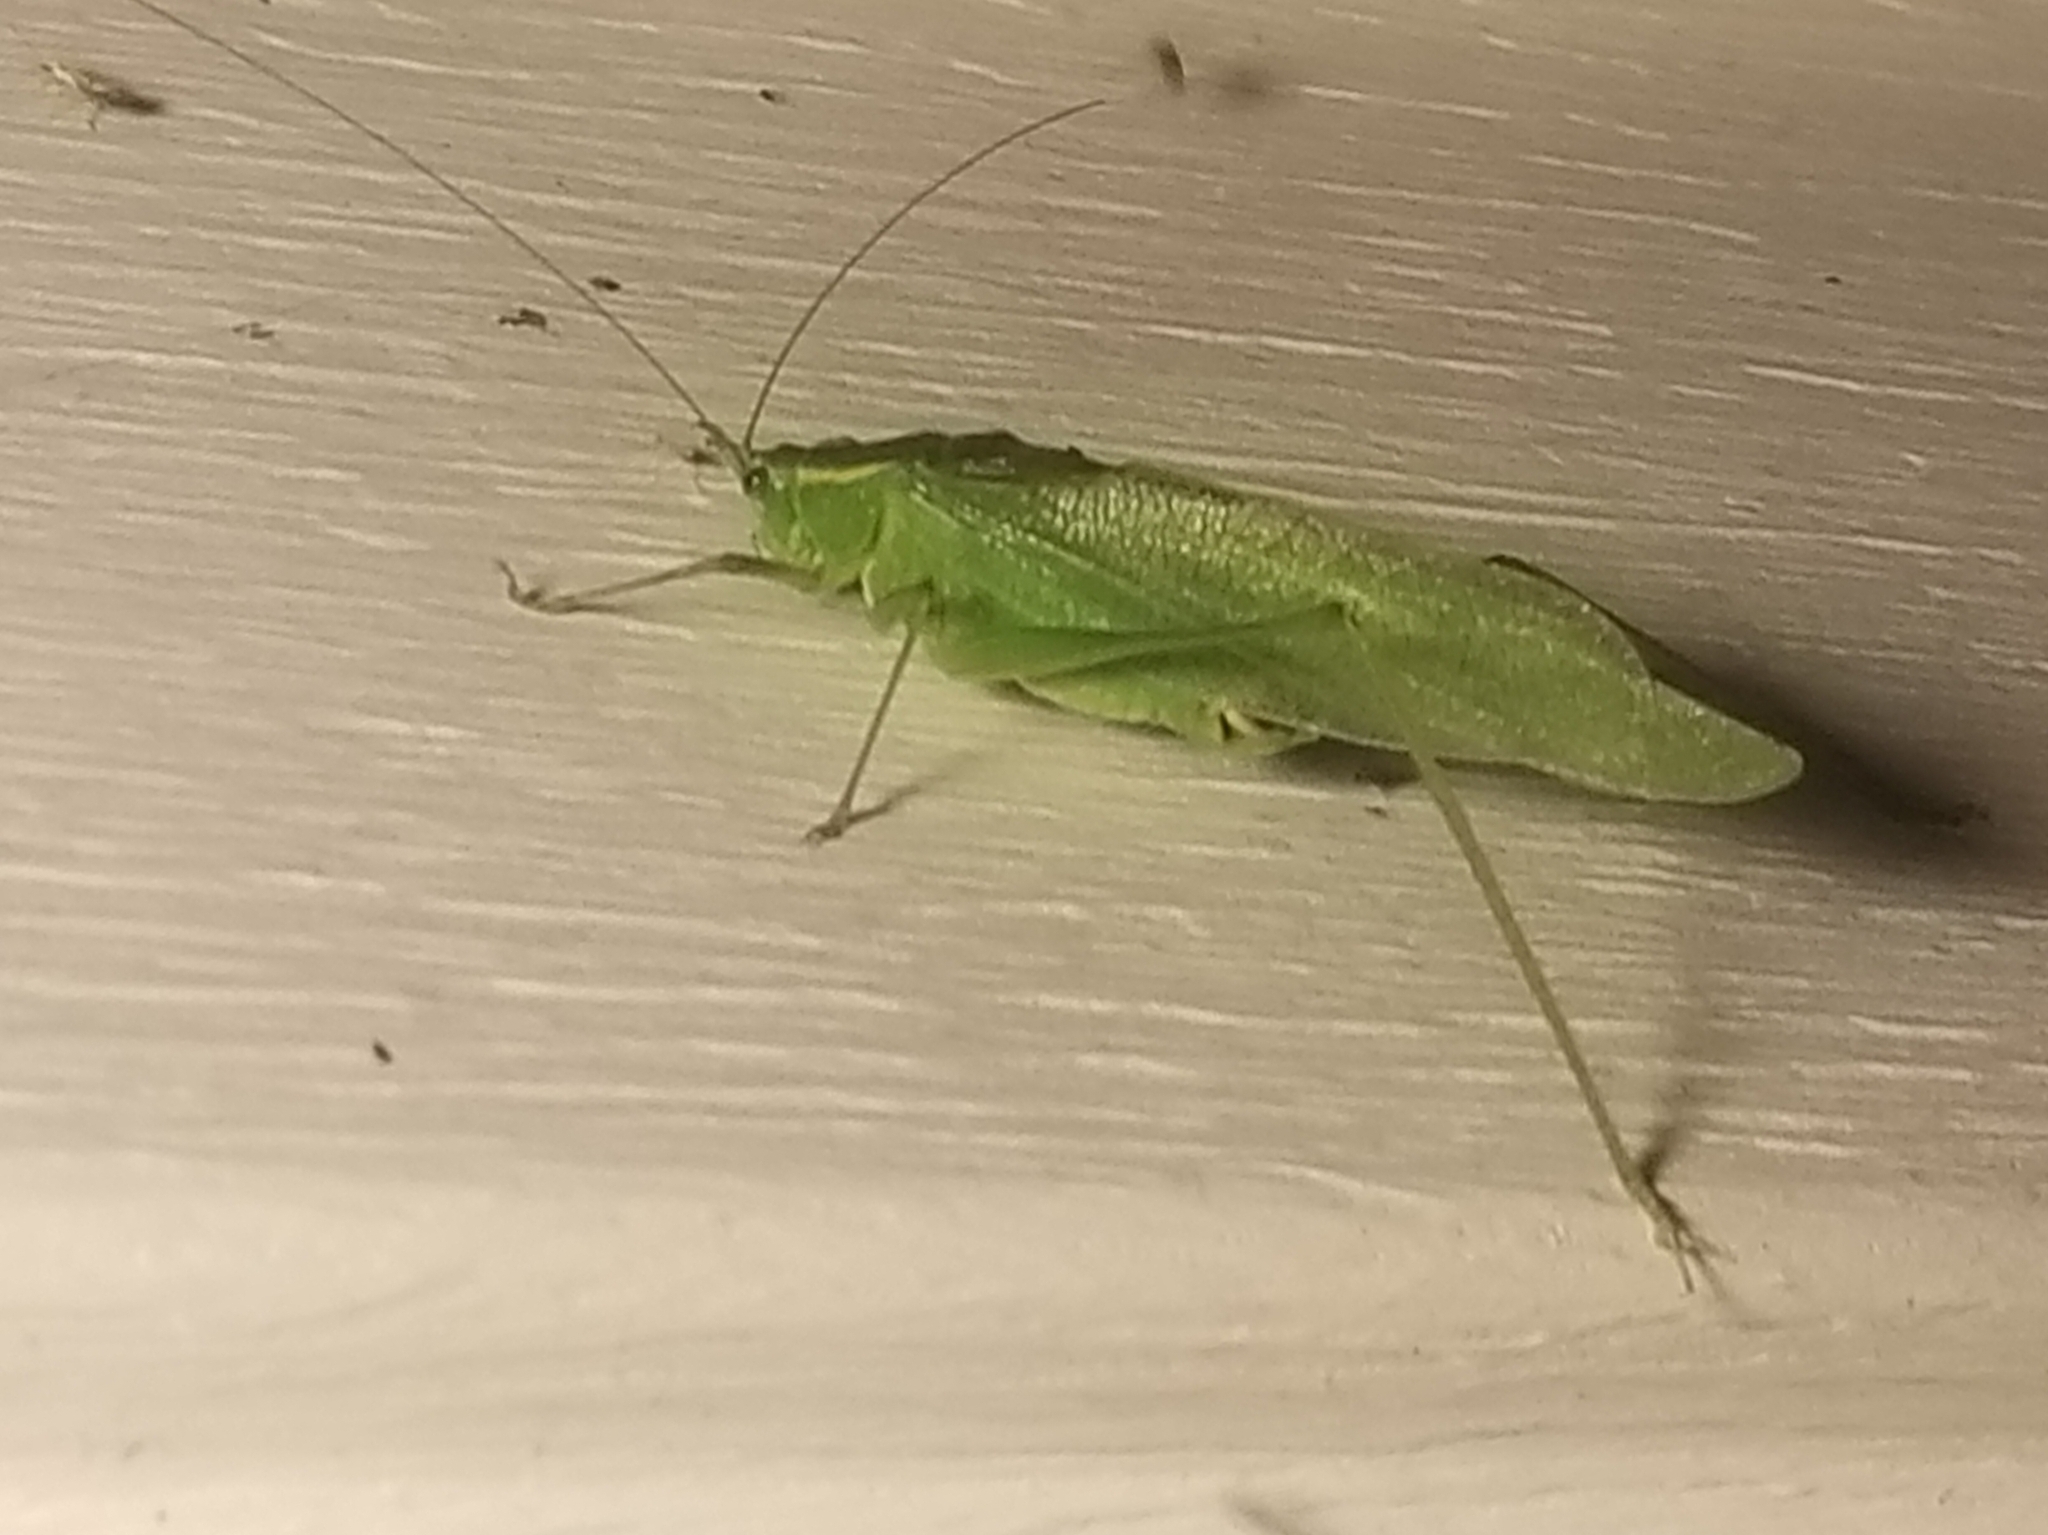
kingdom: Animalia
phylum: Arthropoda
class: Insecta
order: Orthoptera
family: Tettigoniidae
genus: Scudderia
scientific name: Scudderia septentrionalis
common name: Northern bush-katydid
